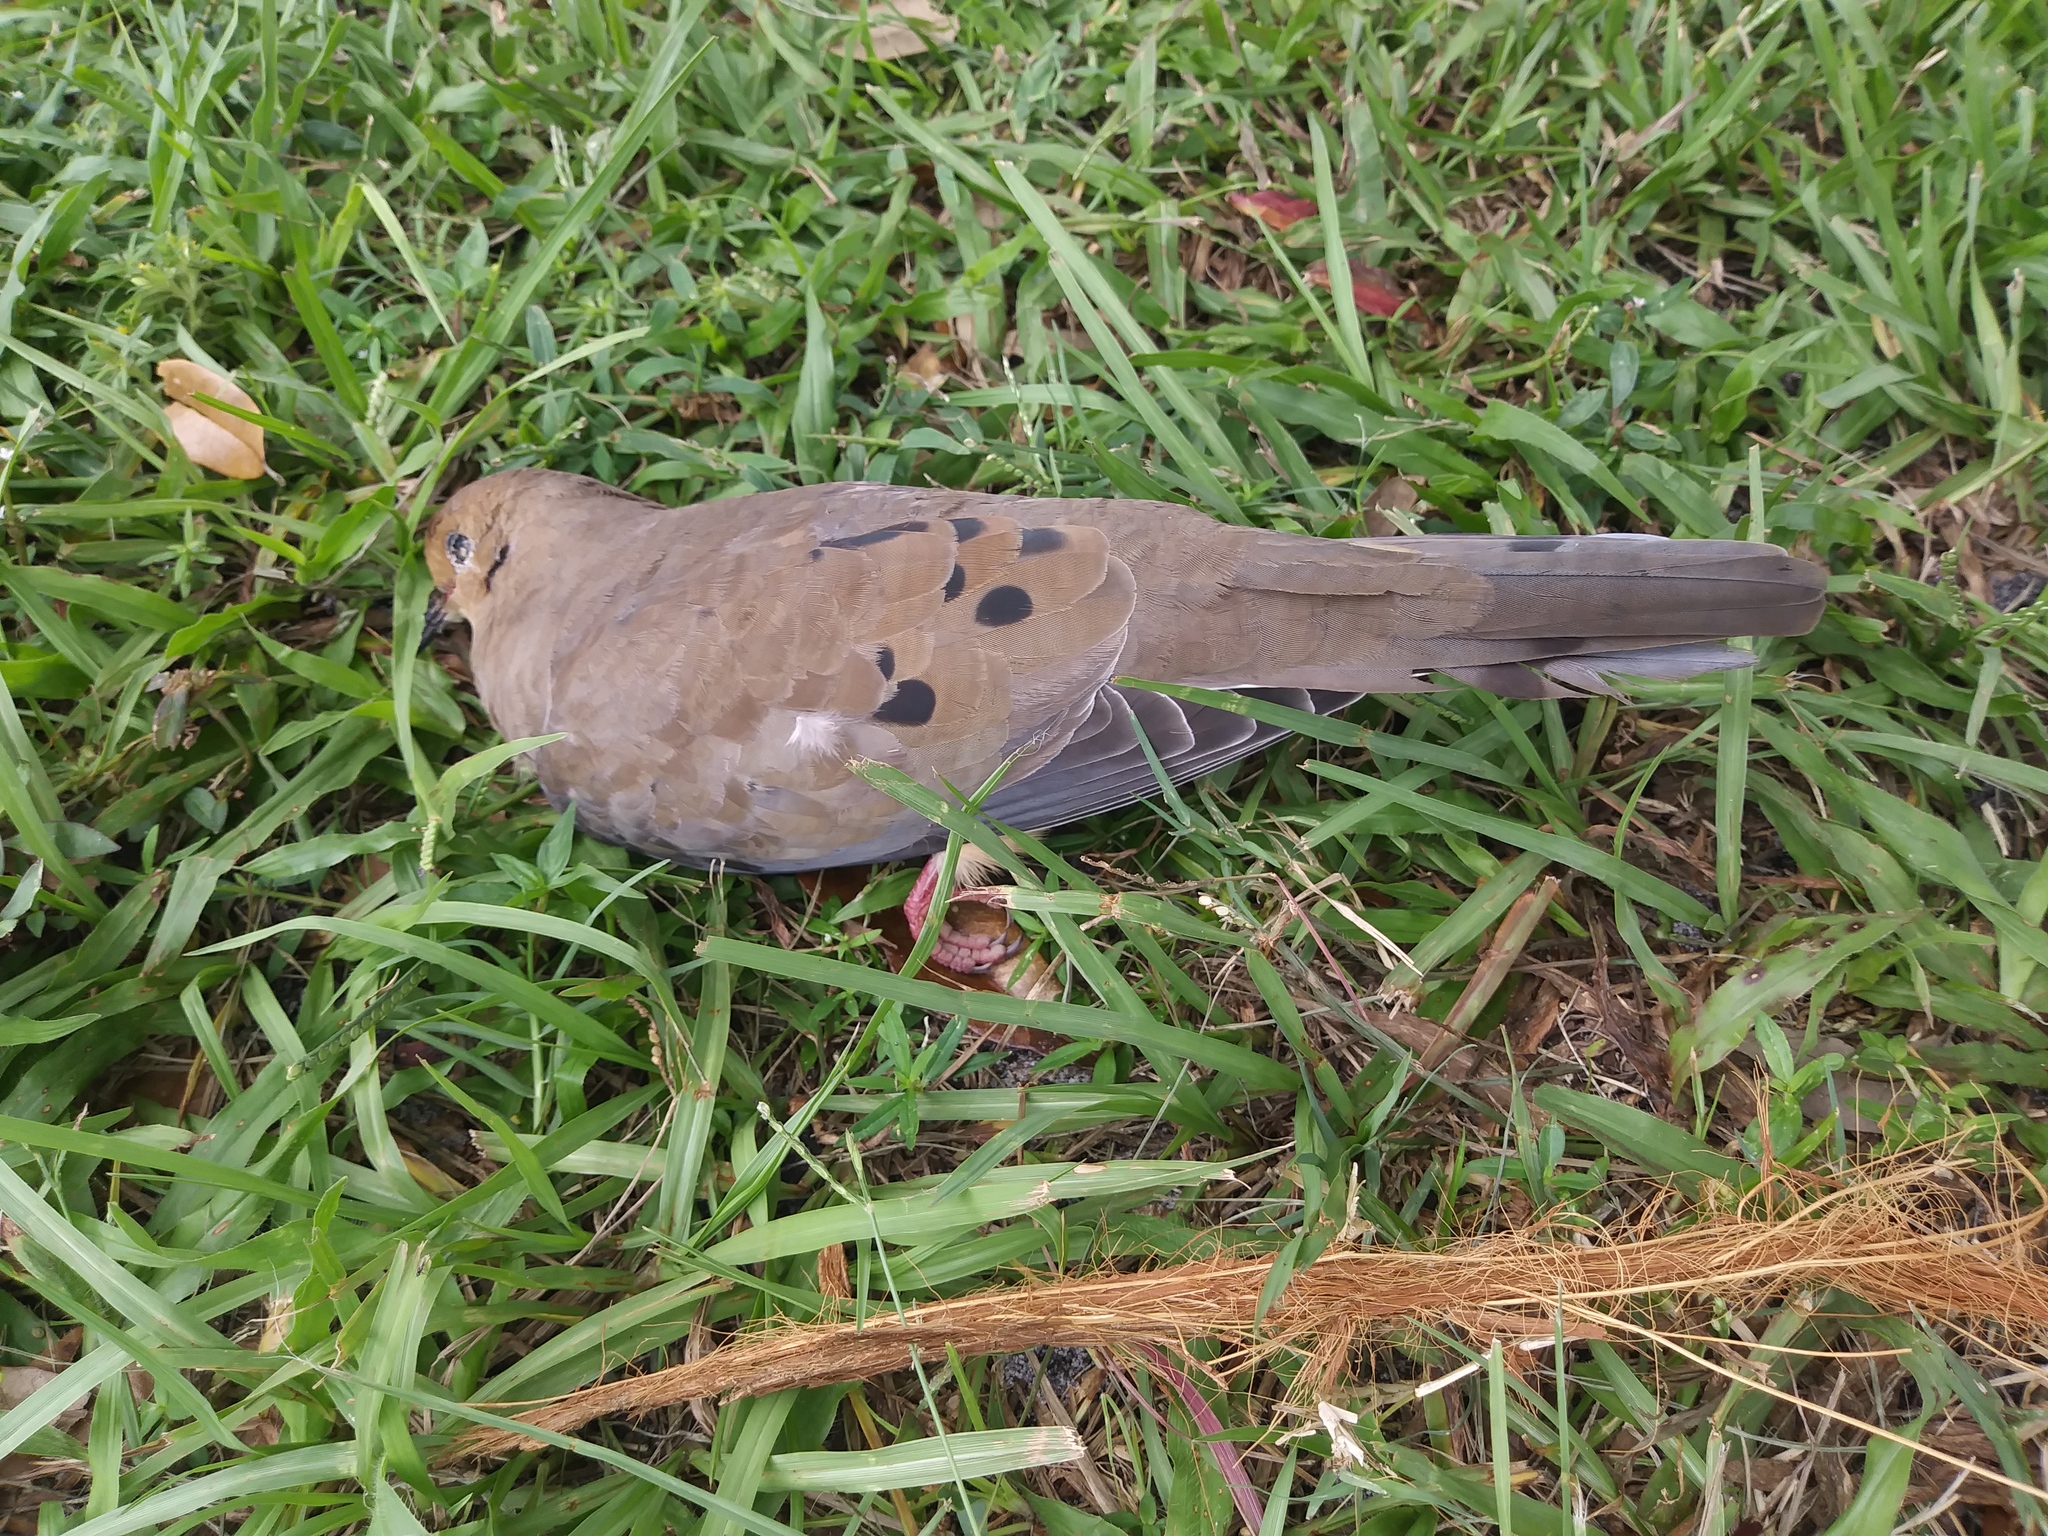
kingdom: Animalia
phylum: Chordata
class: Aves
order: Columbiformes
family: Columbidae
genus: Zenaida
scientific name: Zenaida macroura
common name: Mourning dove
